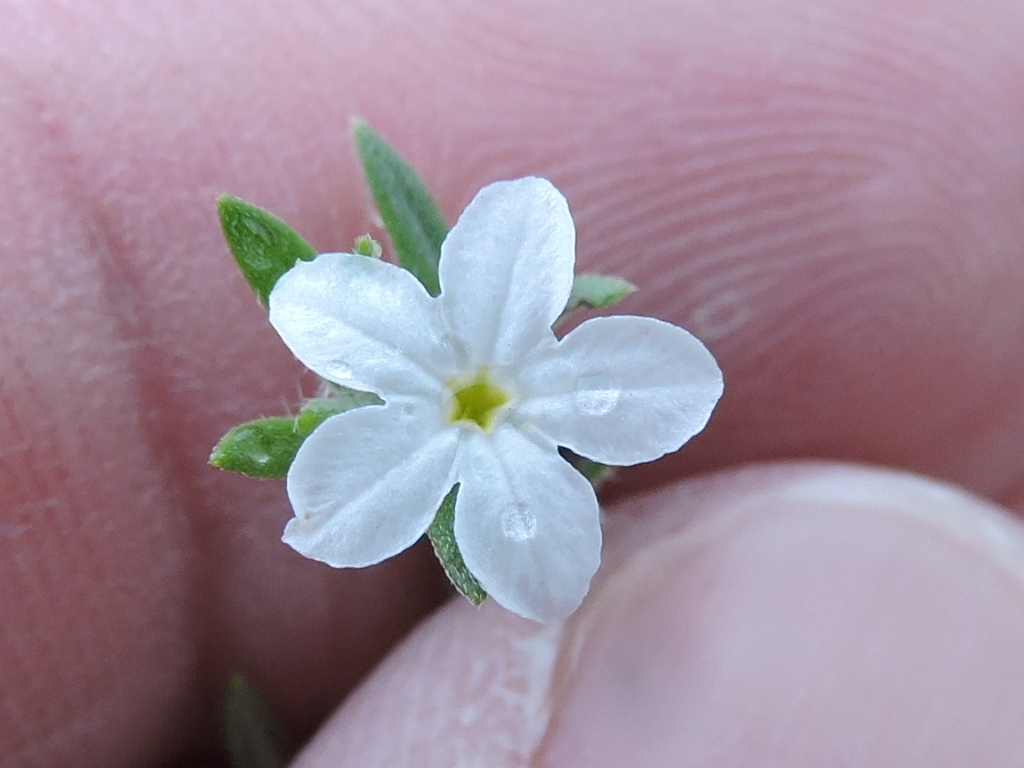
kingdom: Plantae
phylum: Tracheophyta
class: Magnoliopsida
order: Boraginales
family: Heliotropiaceae
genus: Euploca
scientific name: Euploca tenella
